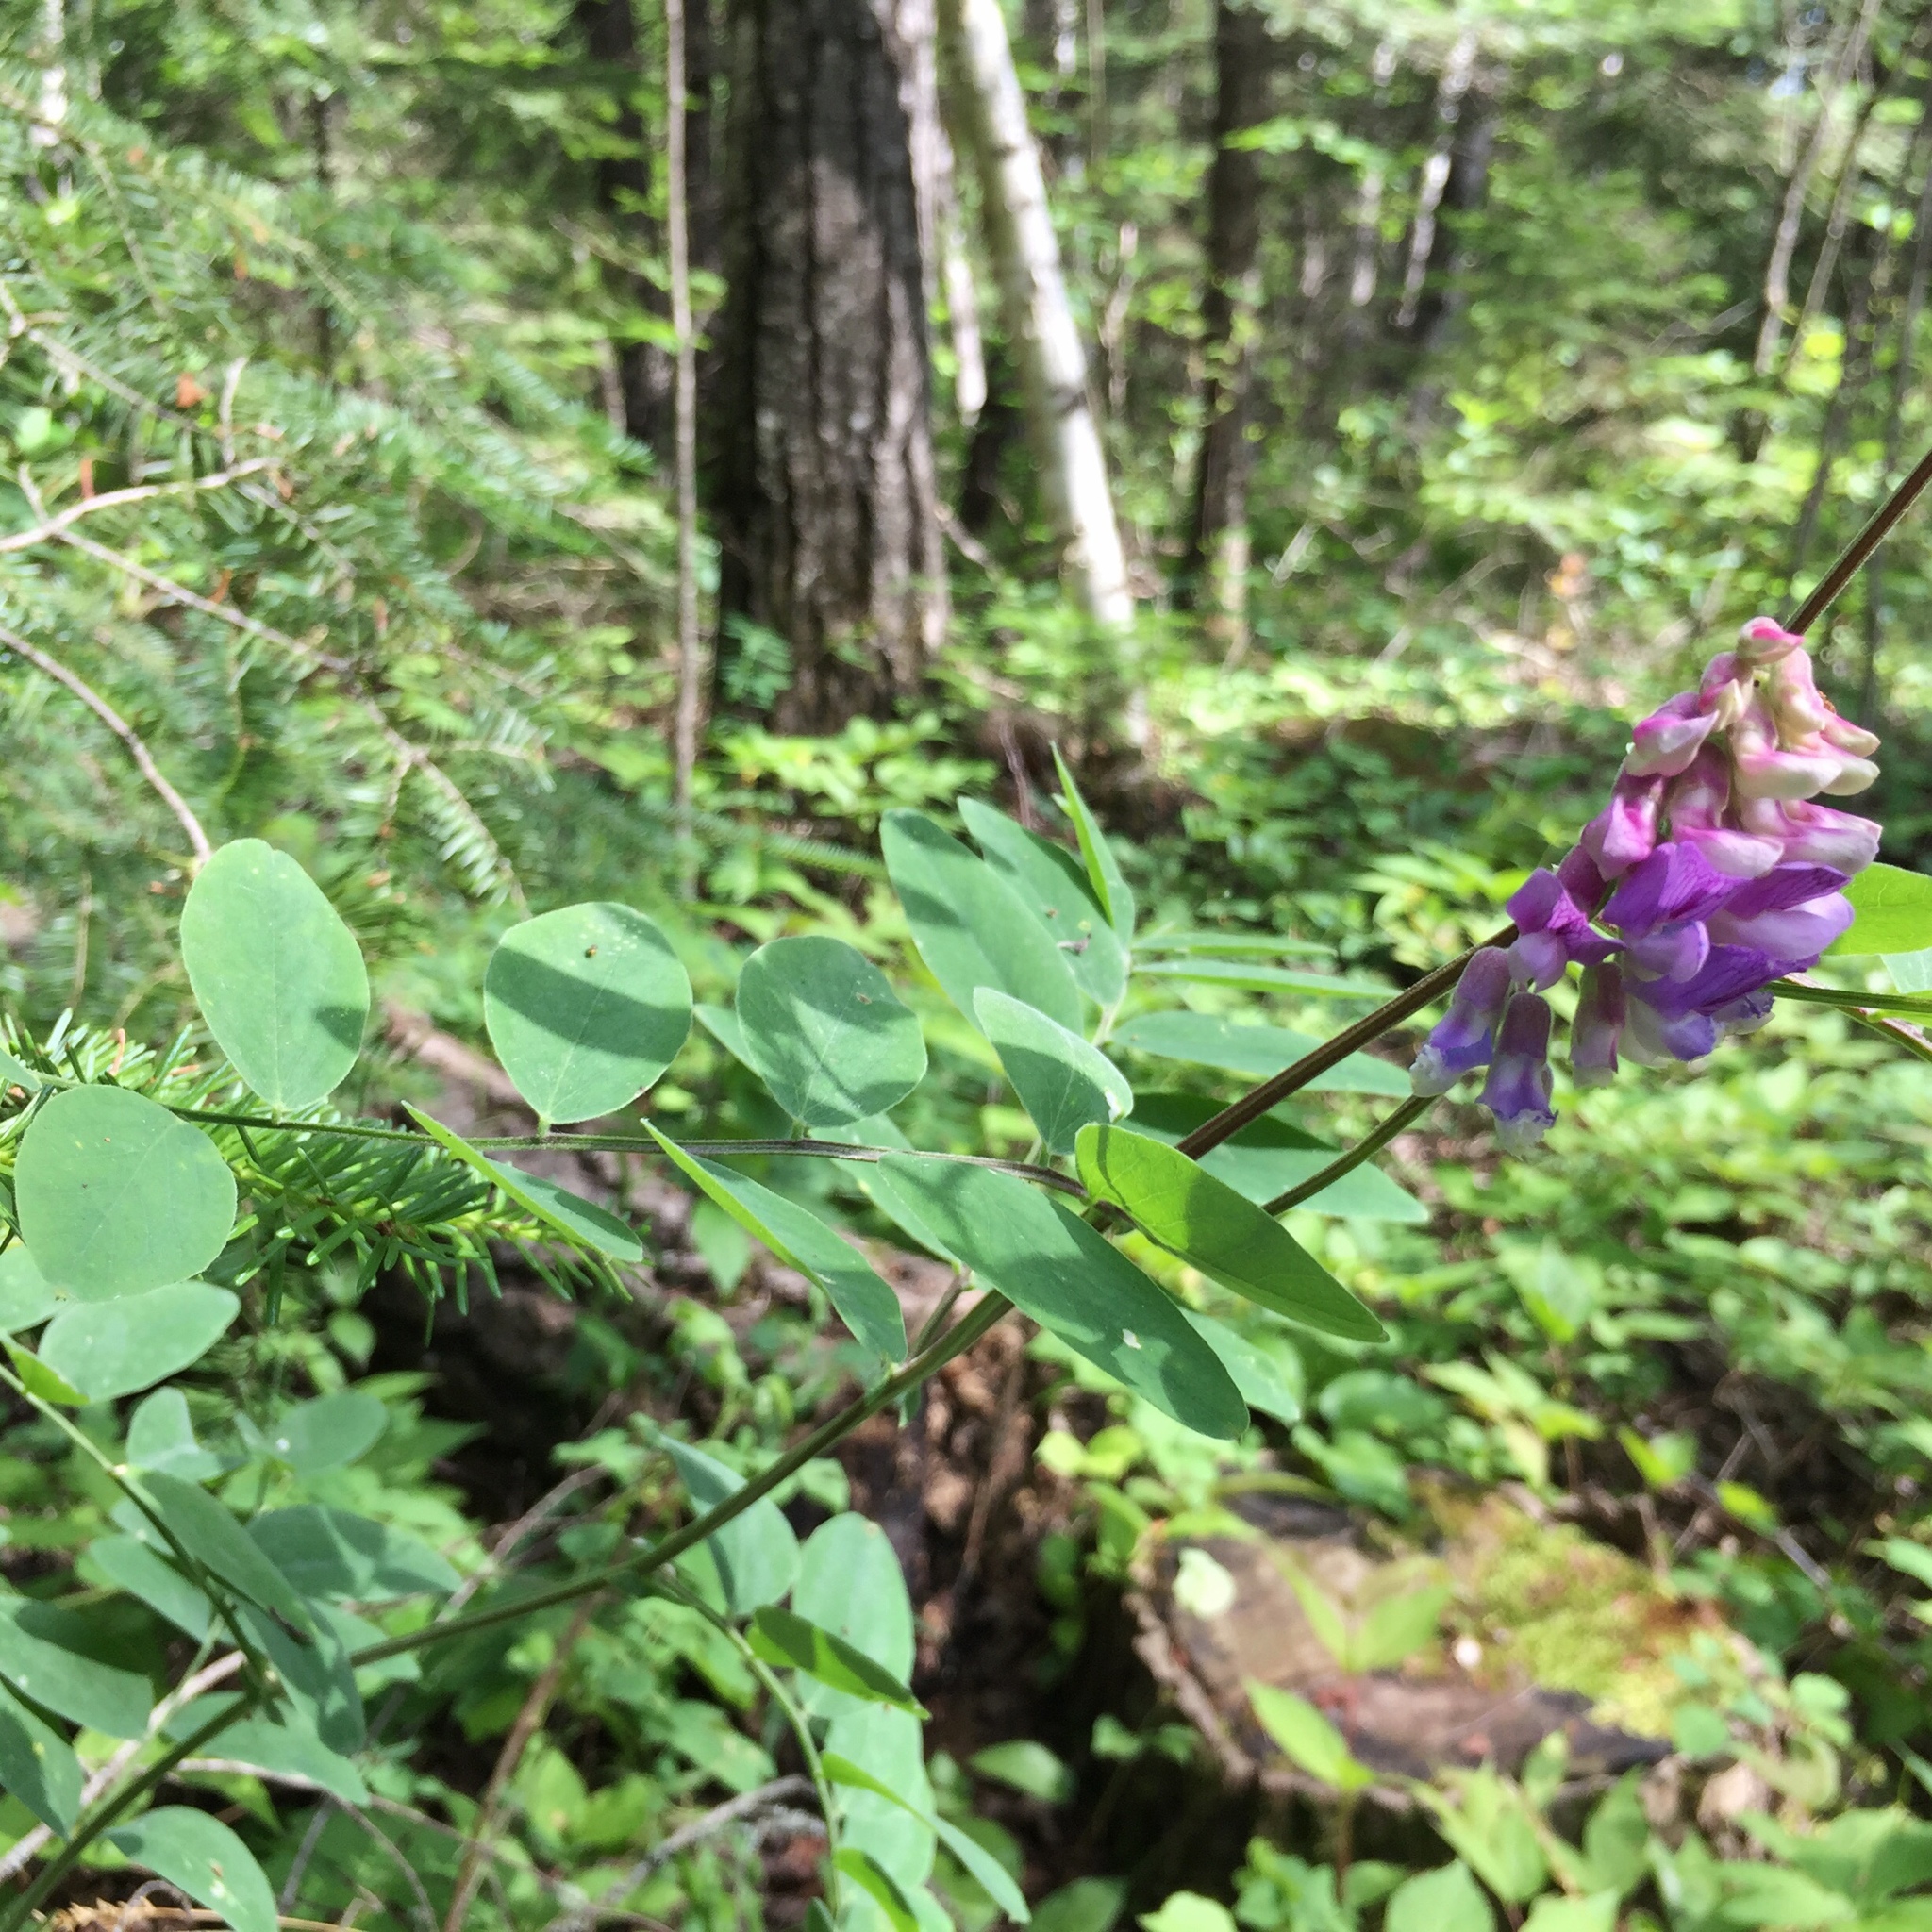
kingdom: Plantae
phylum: Tracheophyta
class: Magnoliopsida
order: Fabales
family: Fabaceae
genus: Lathyrus
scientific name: Lathyrus venosus
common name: Forest-pea
